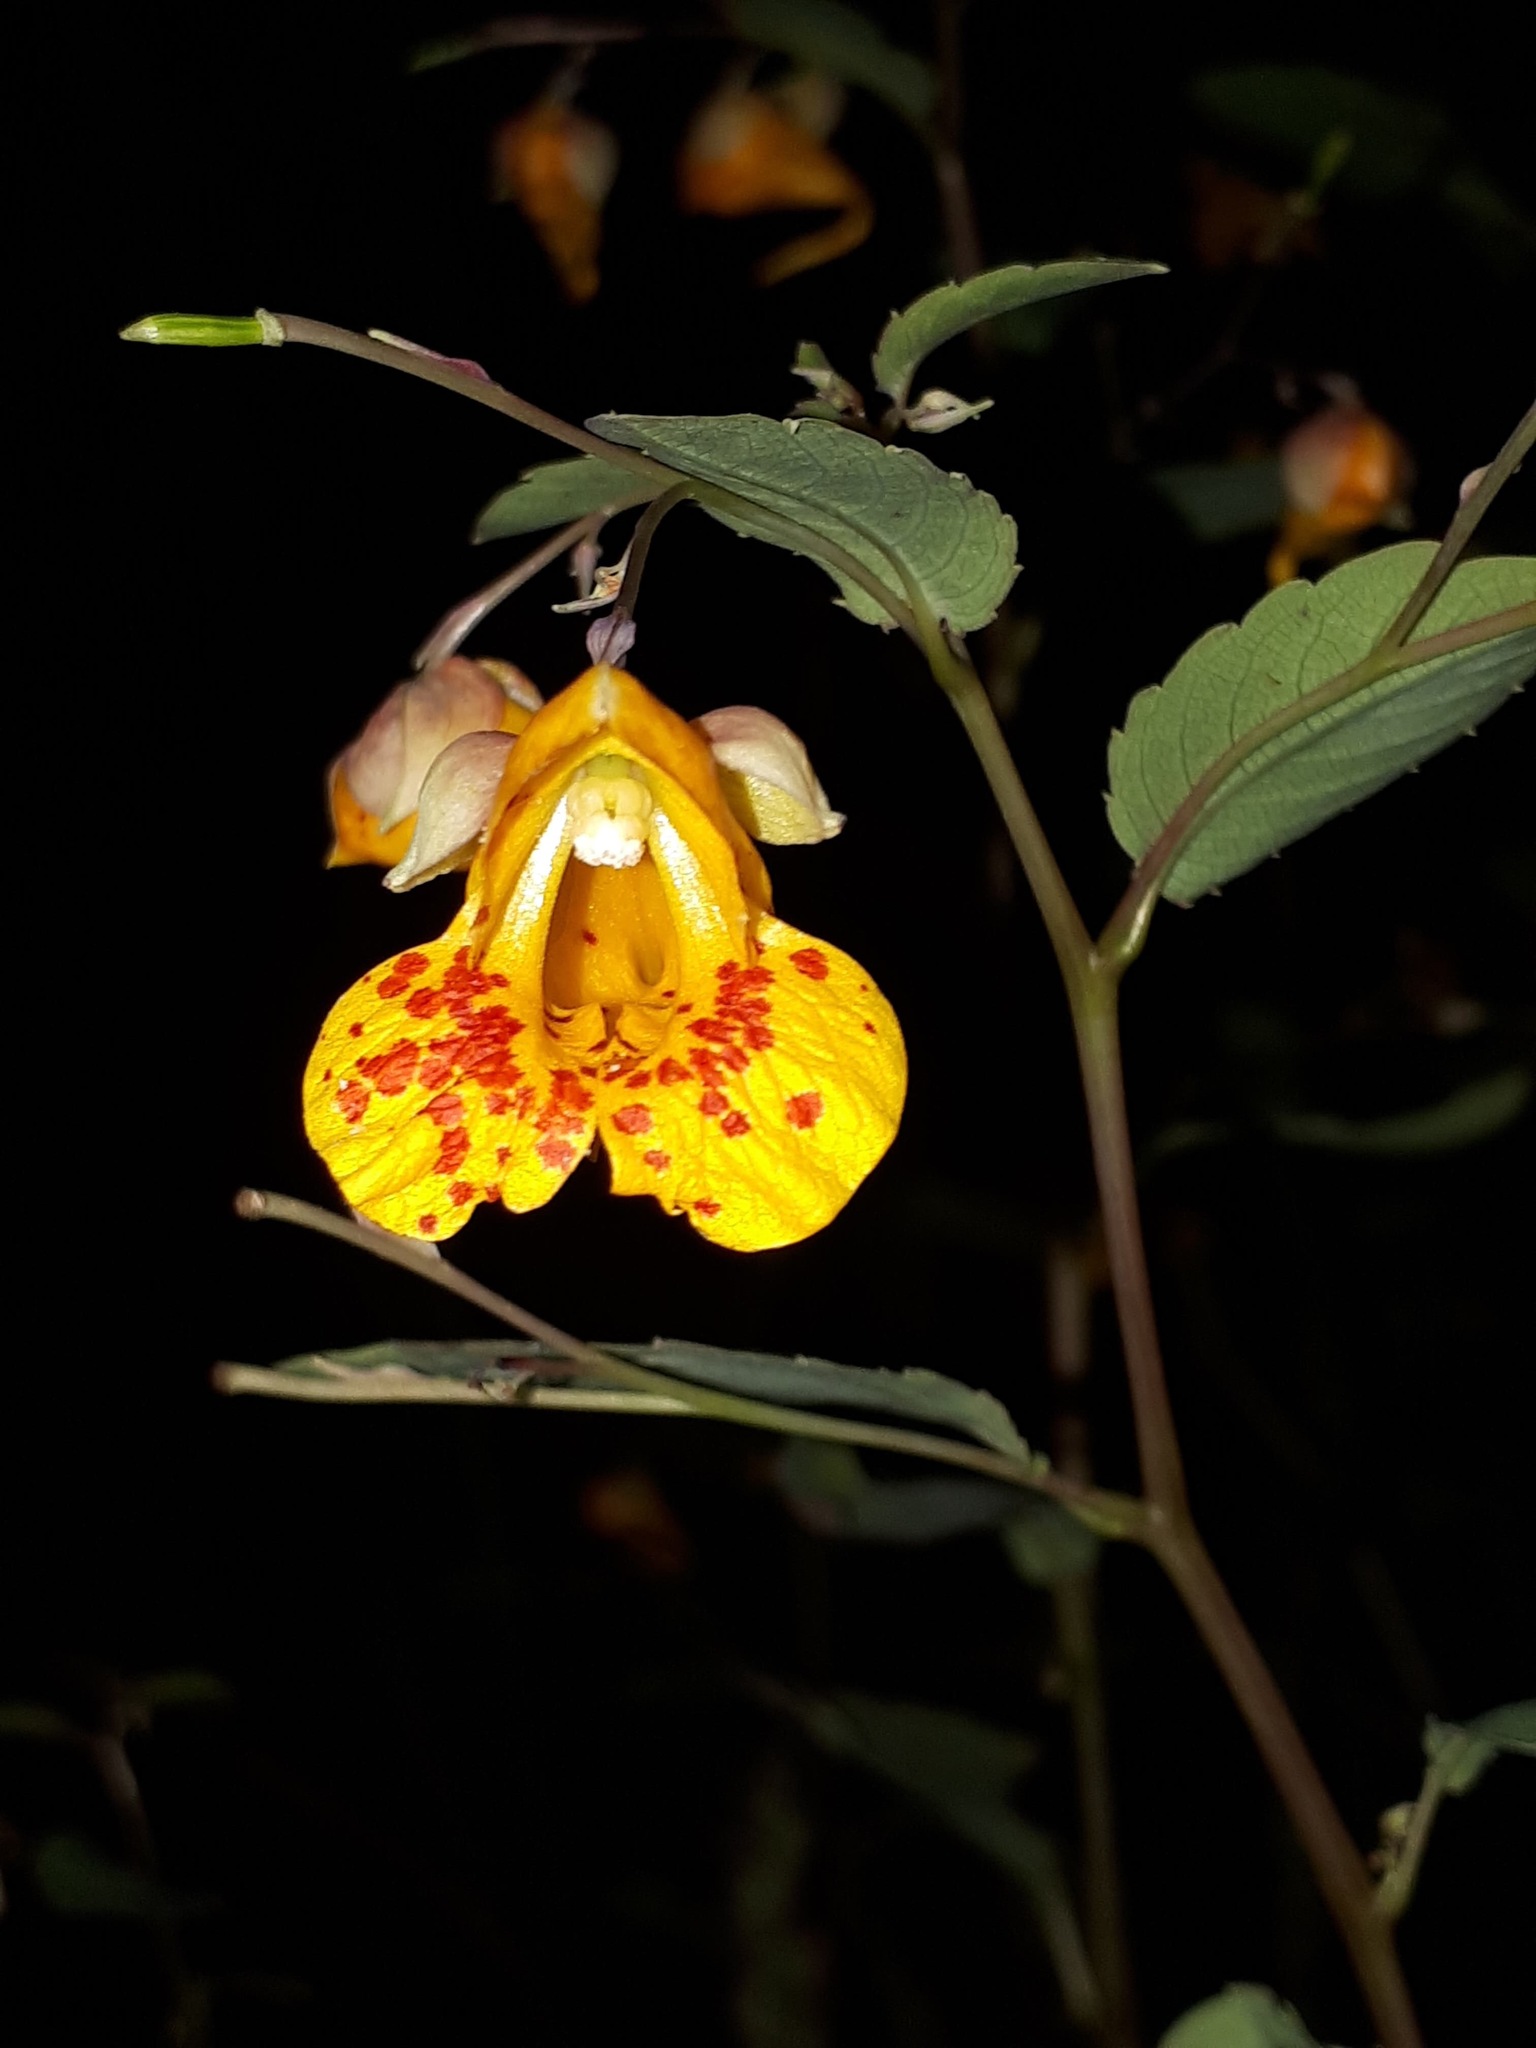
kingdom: Plantae
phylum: Tracheophyta
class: Magnoliopsida
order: Ericales
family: Balsaminaceae
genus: Impatiens
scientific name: Impatiens capensis
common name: Orange balsam
